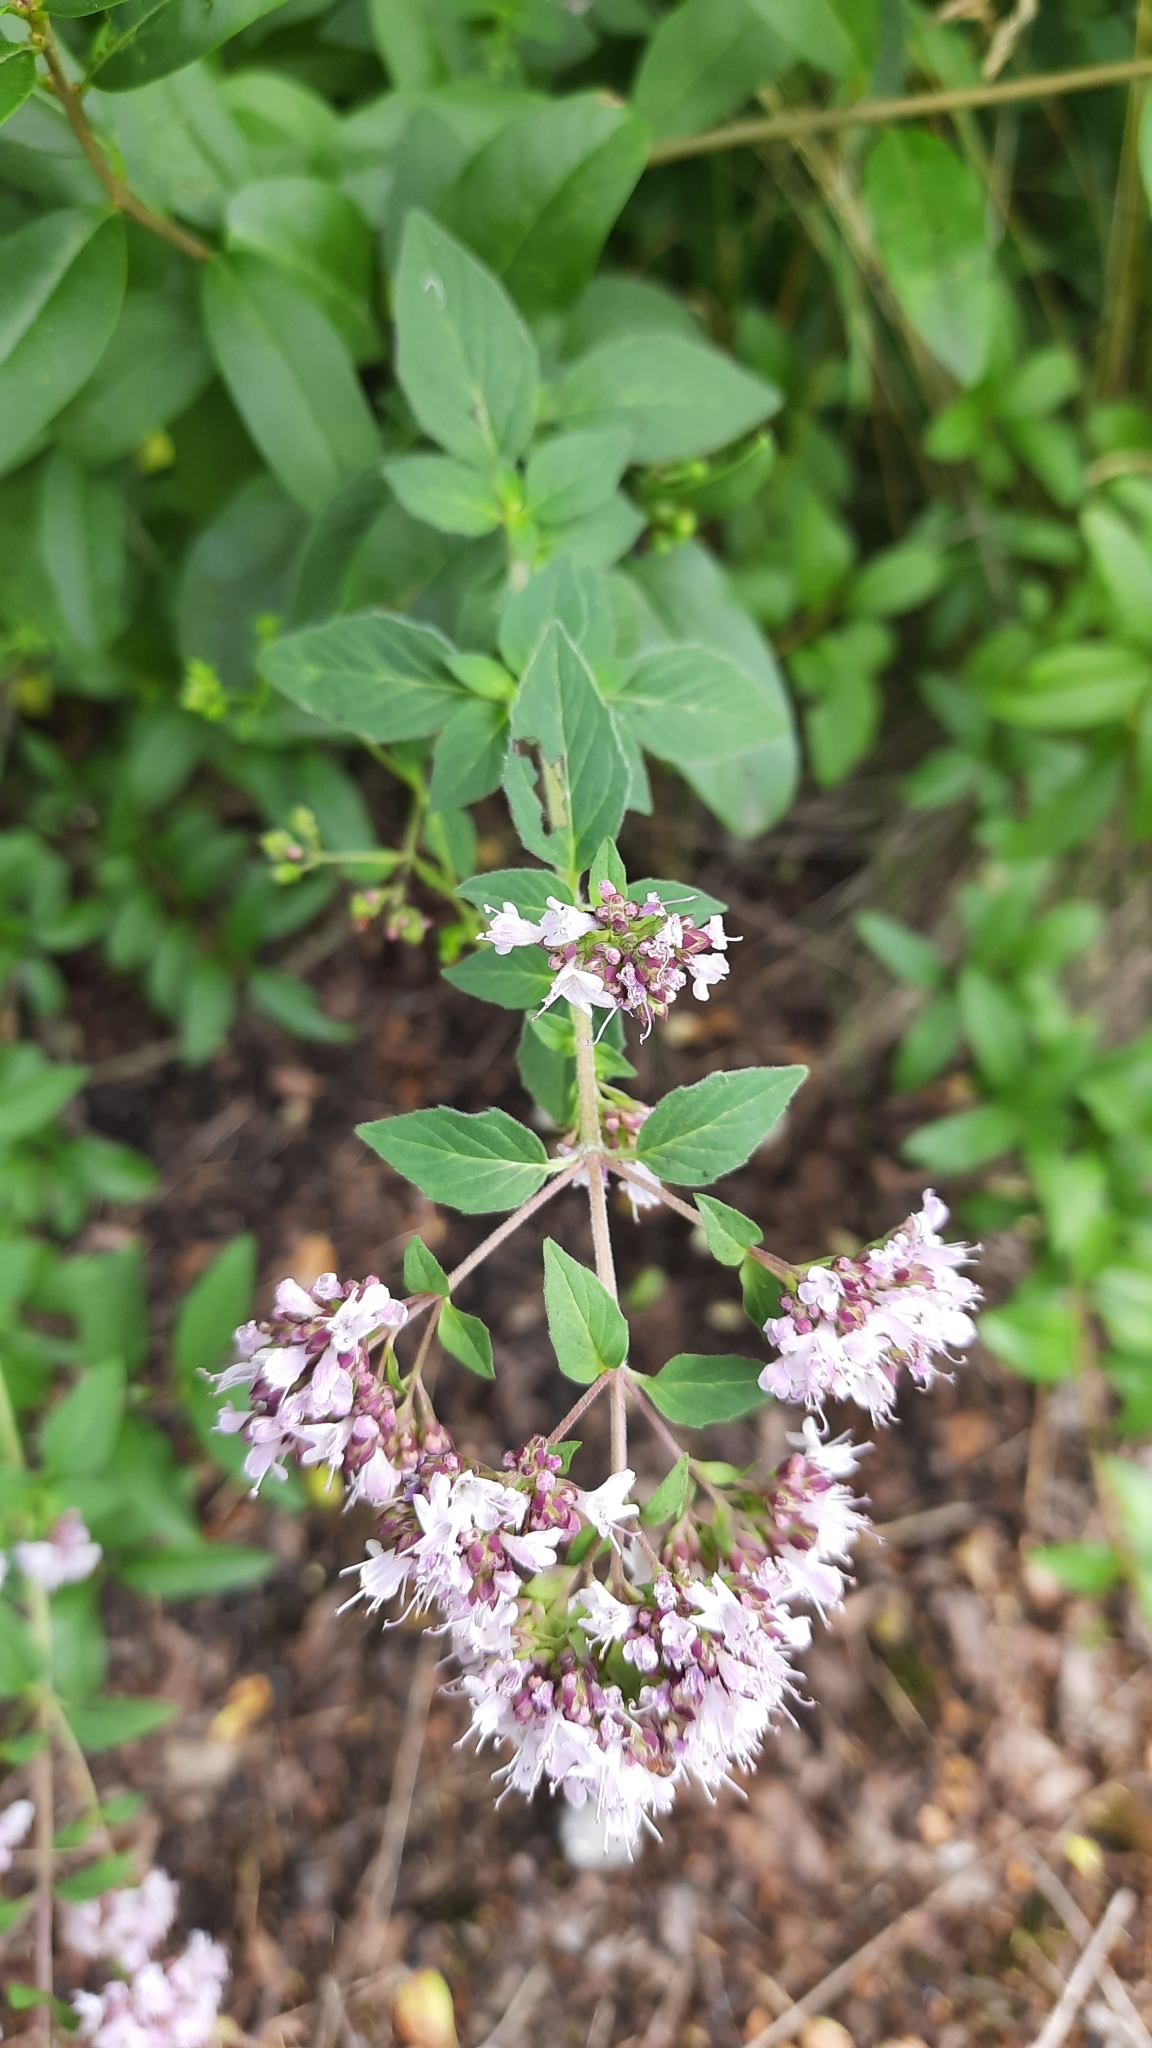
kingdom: Plantae
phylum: Tracheophyta
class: Magnoliopsida
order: Lamiales
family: Lamiaceae
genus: Origanum
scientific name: Origanum vulgare
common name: Wild marjoram
